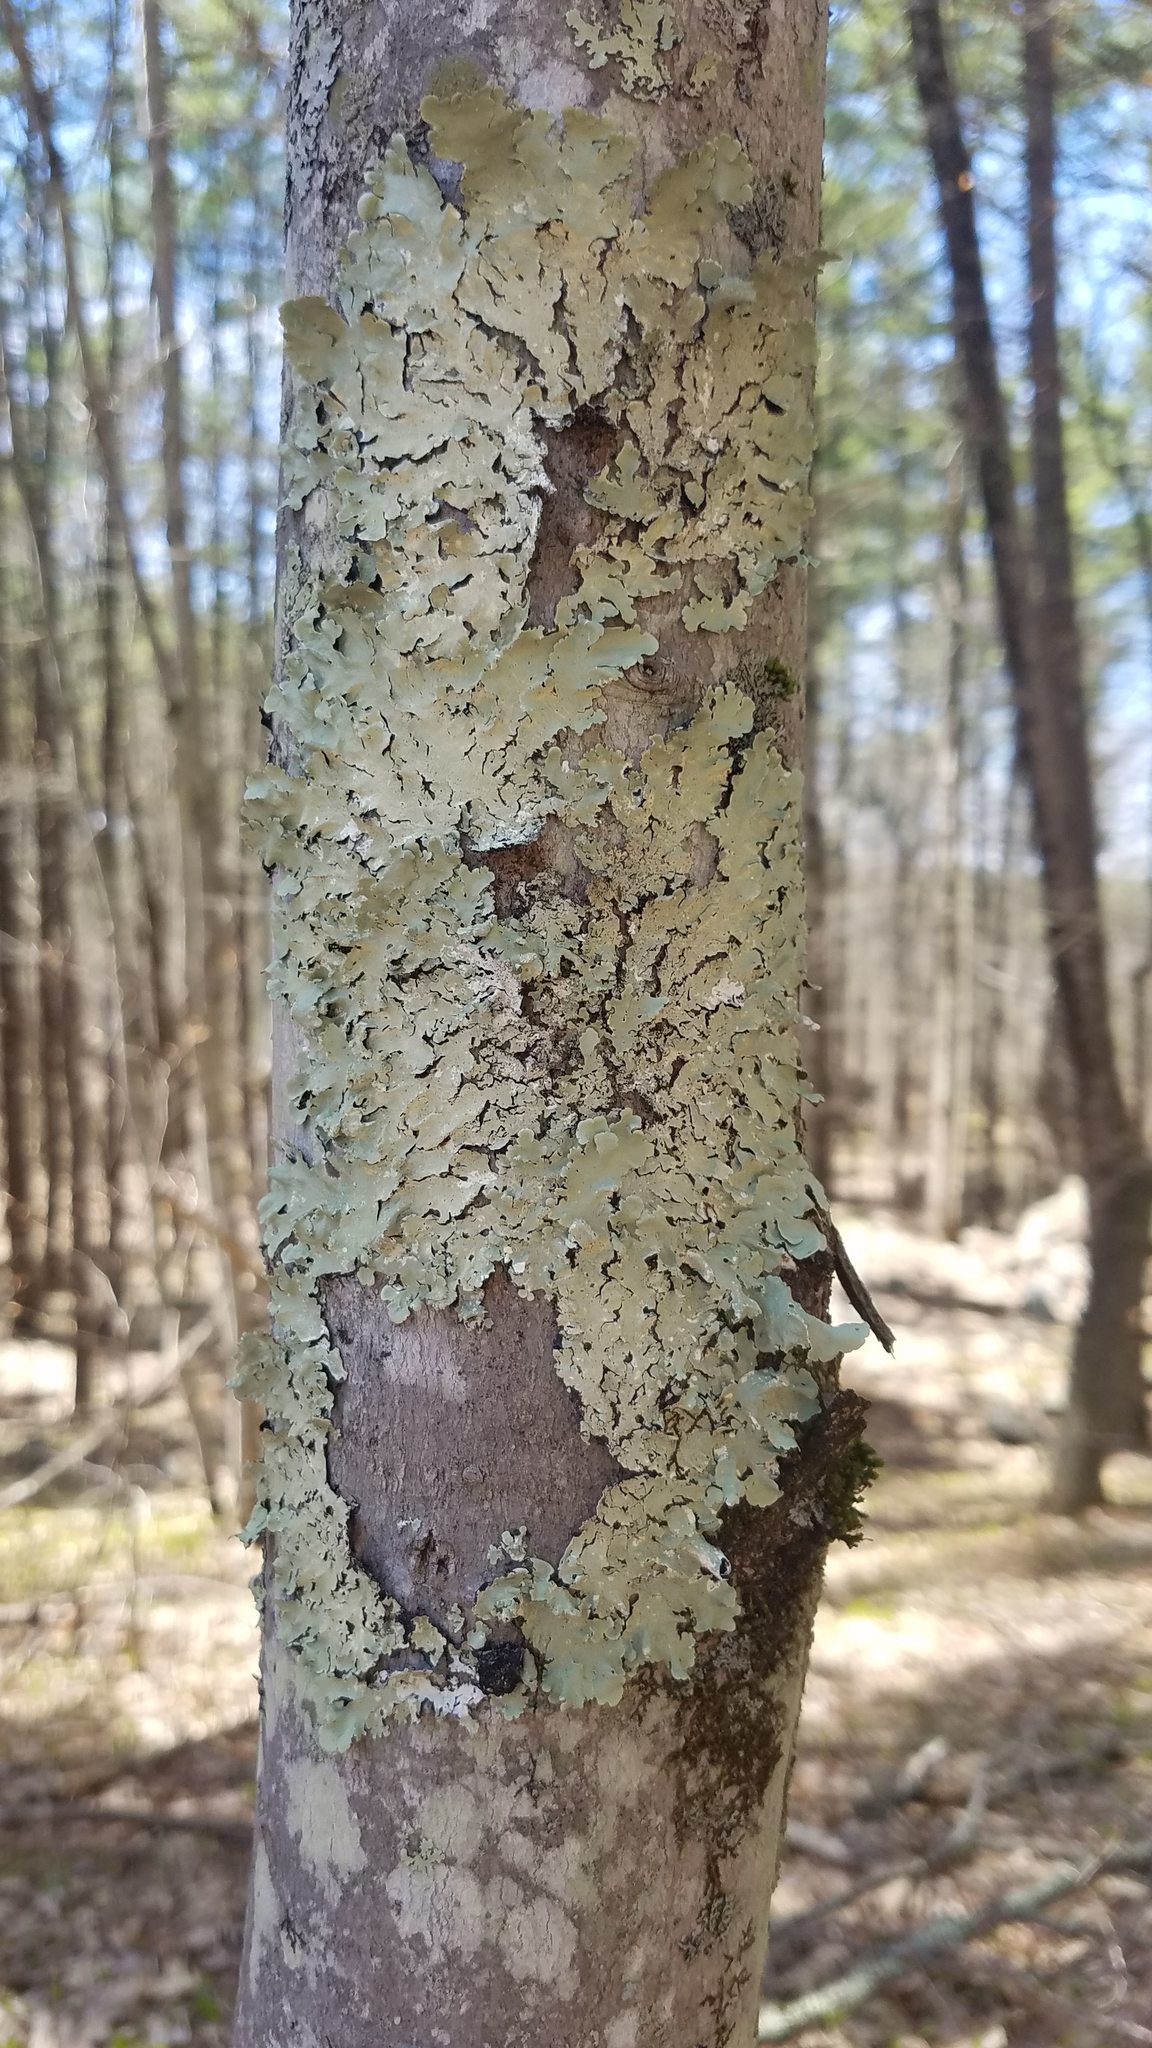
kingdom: Fungi
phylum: Ascomycota
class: Lecanoromycetes
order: Lecanorales
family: Parmeliaceae
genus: Flavoparmelia
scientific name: Flavoparmelia caperata
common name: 40-mile per hour lichen
